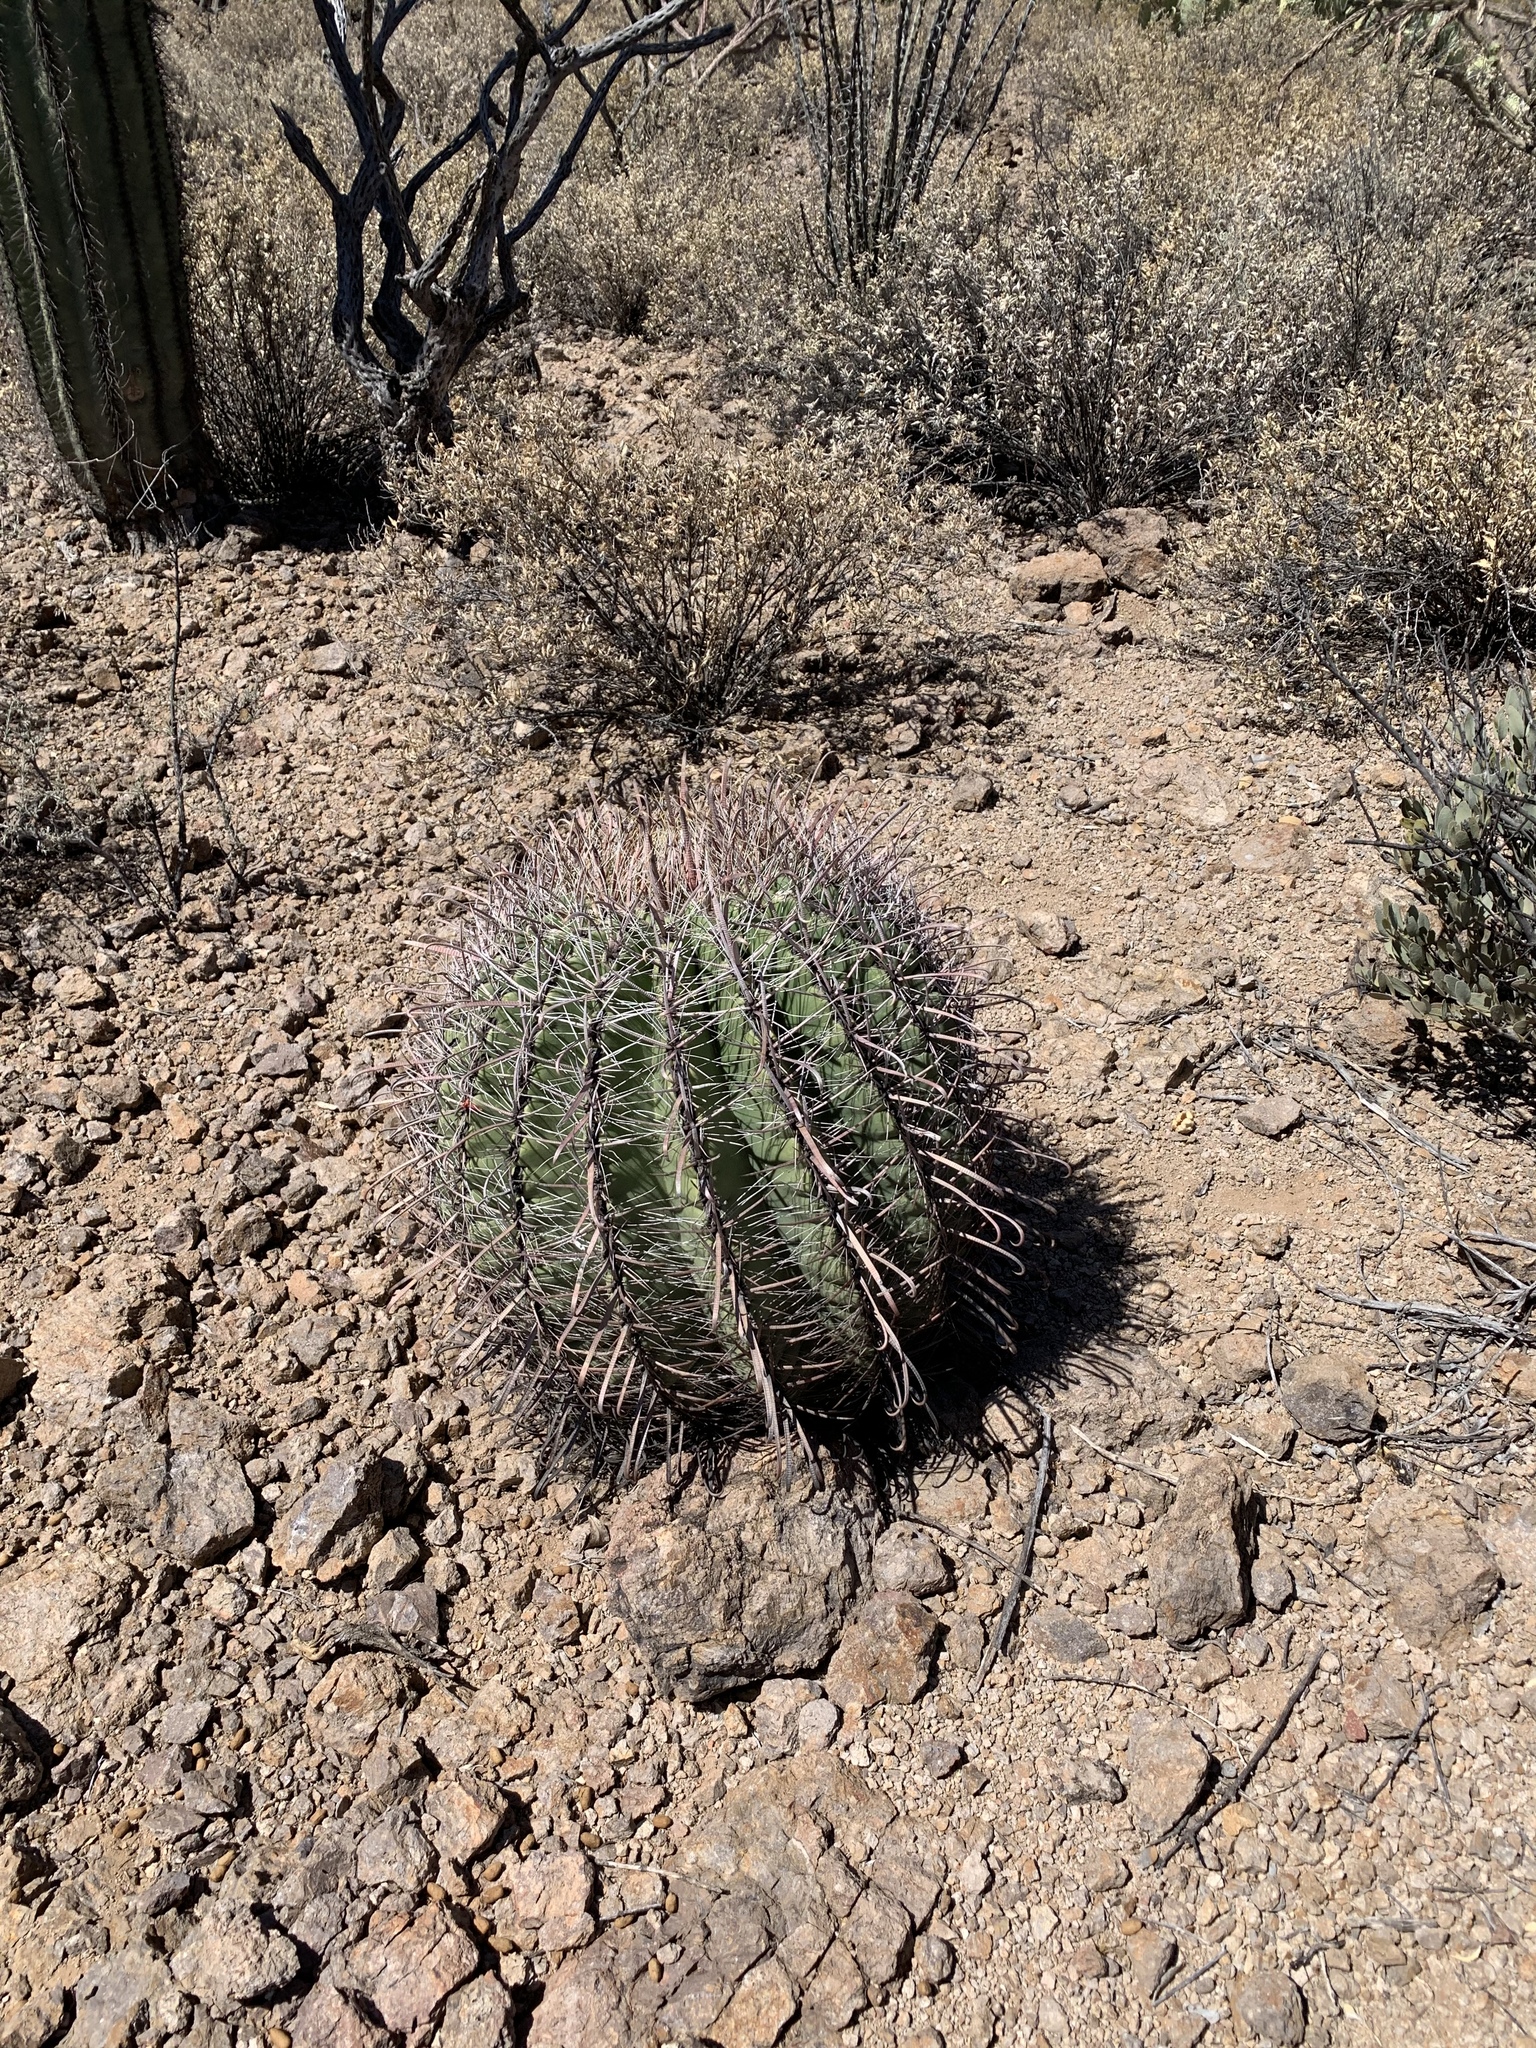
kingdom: Plantae
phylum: Tracheophyta
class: Magnoliopsida
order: Caryophyllales
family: Cactaceae
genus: Ferocactus
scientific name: Ferocactus wislizeni
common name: Candy barrel cactus
